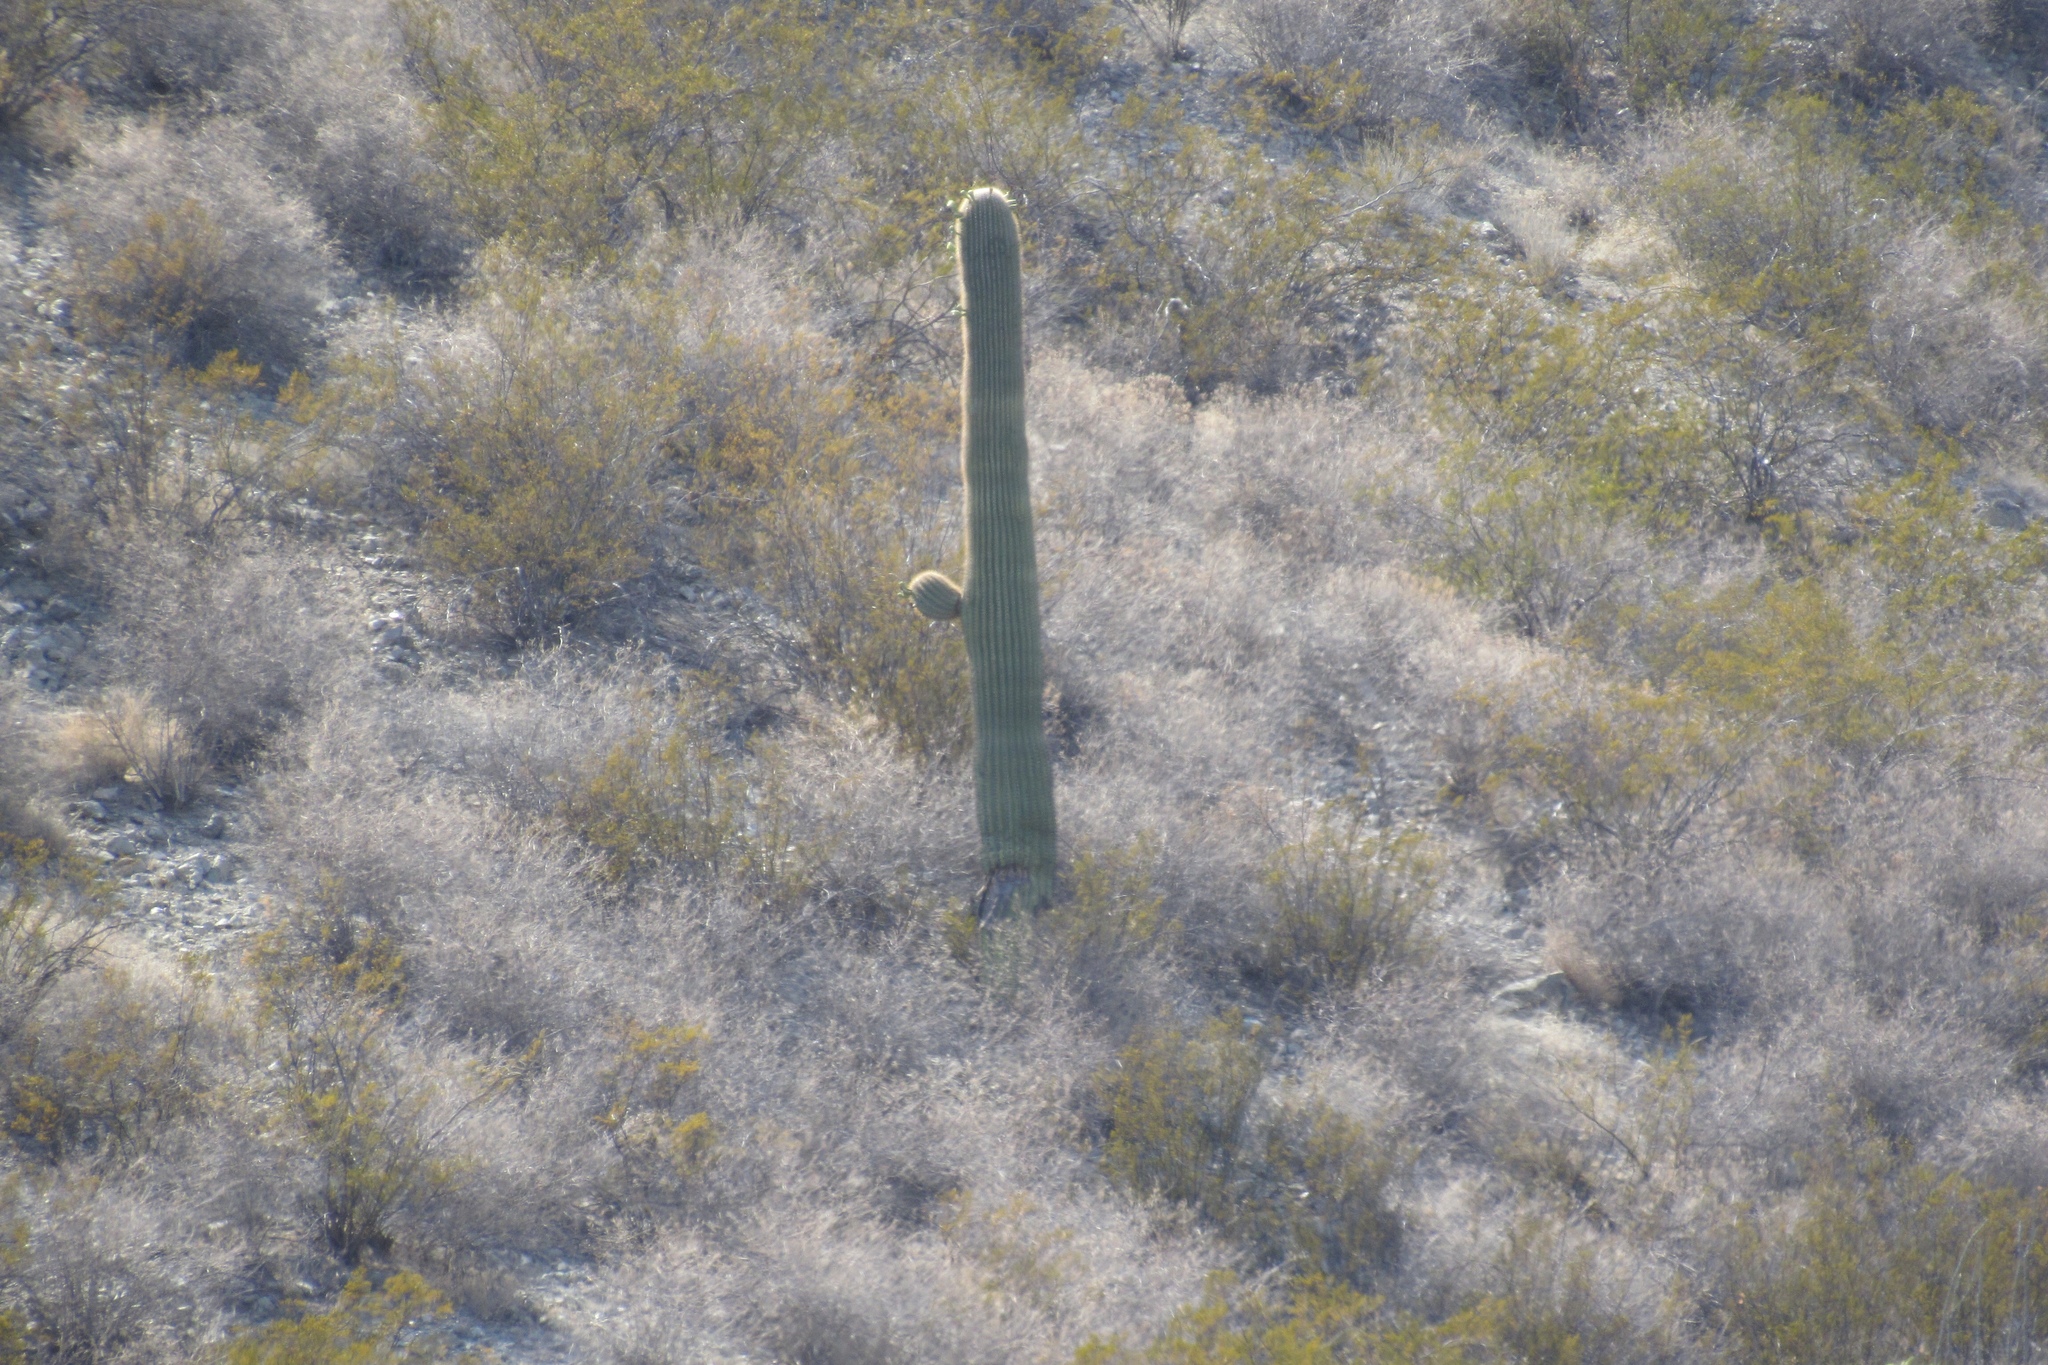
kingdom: Plantae
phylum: Tracheophyta
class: Magnoliopsida
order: Caryophyllales
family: Cactaceae
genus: Carnegiea
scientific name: Carnegiea gigantea
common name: Saguaro
